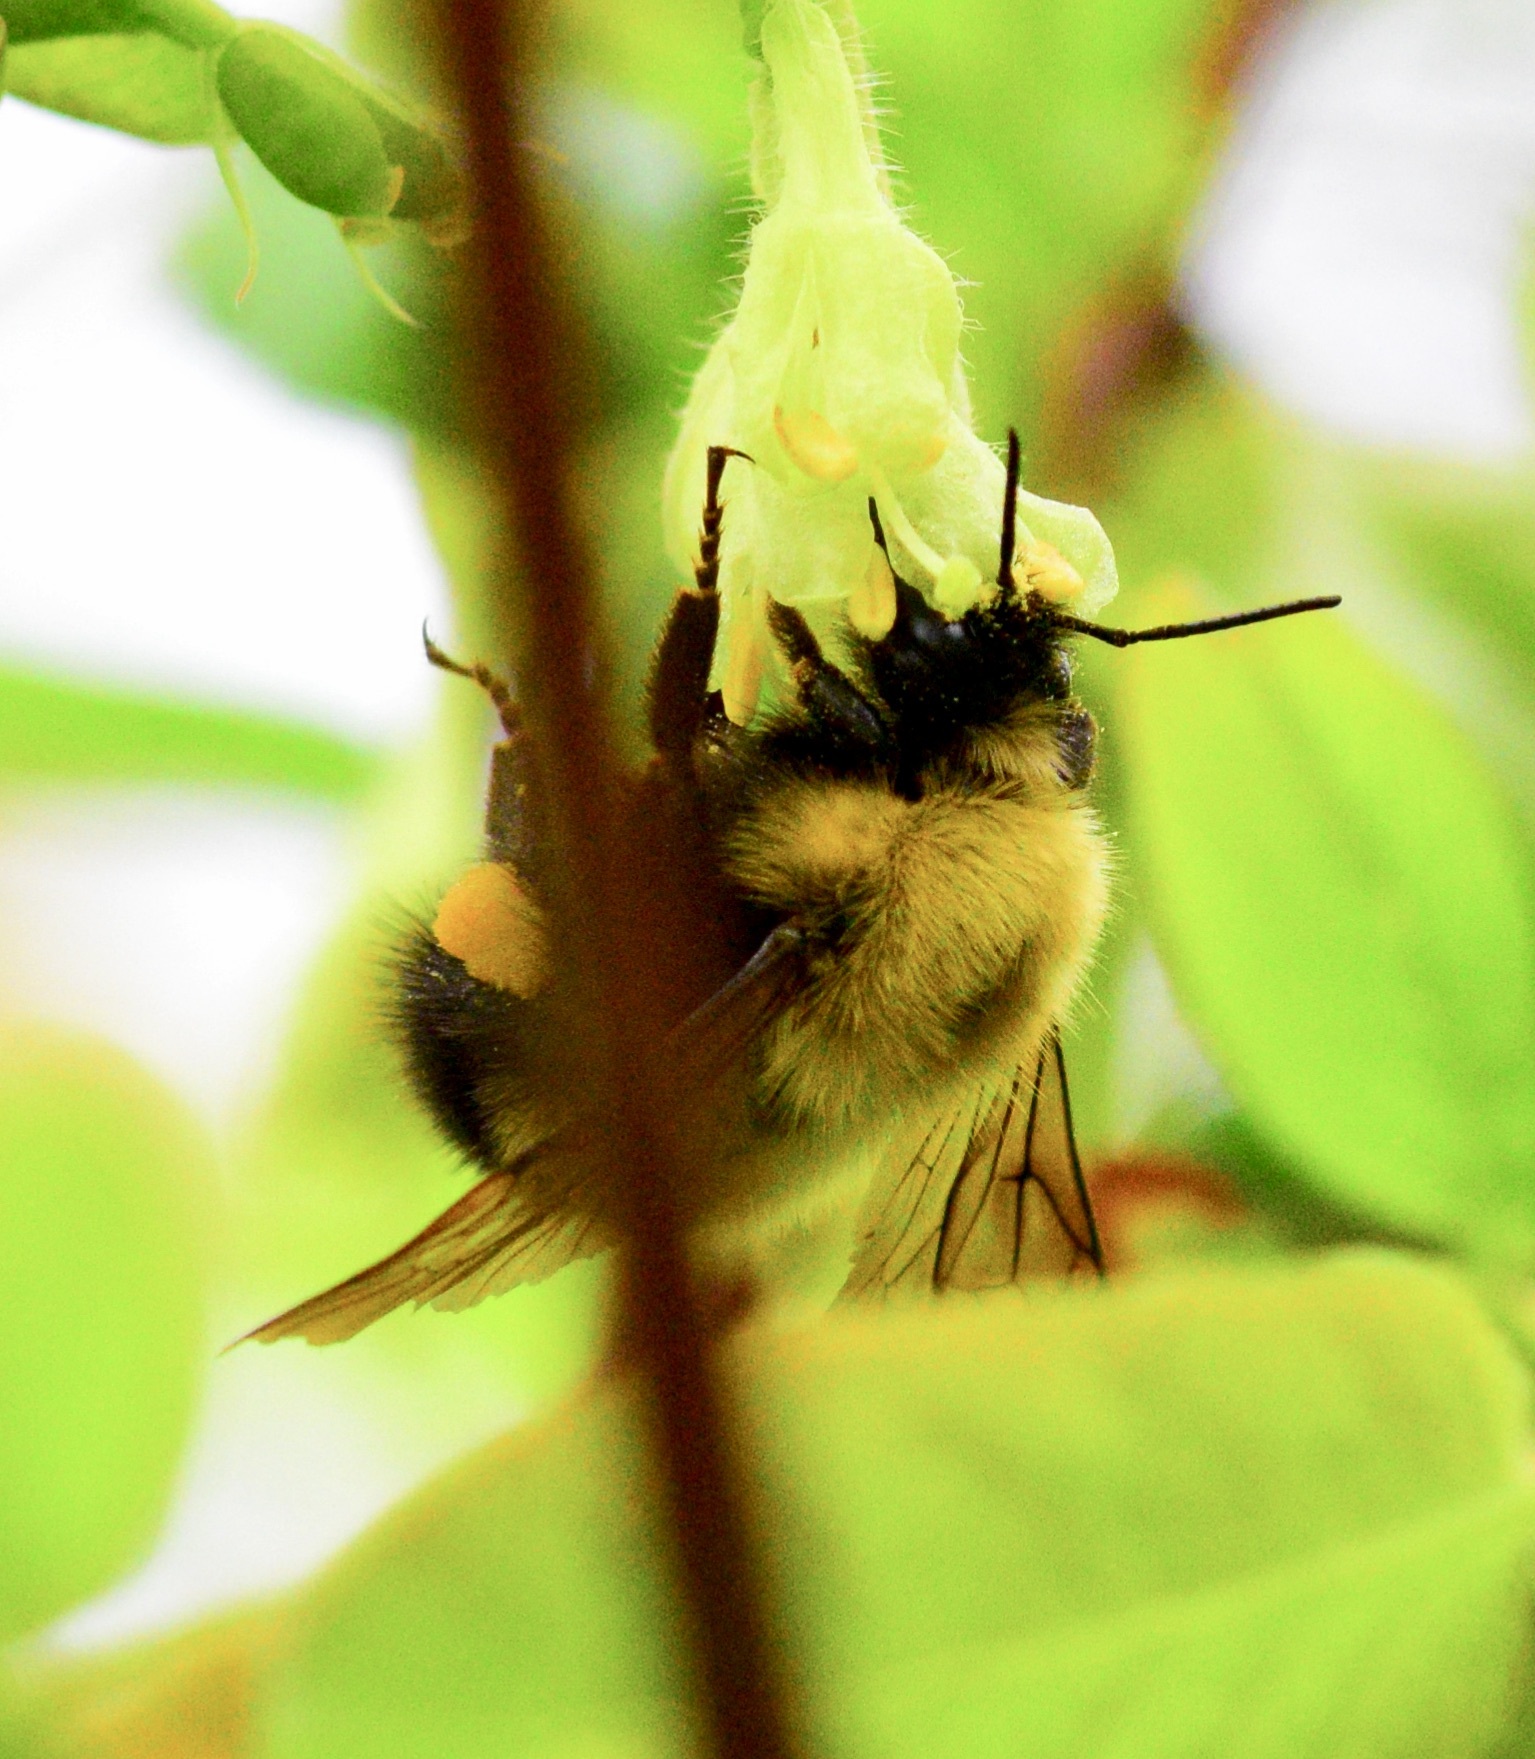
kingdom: Animalia
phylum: Arthropoda
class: Insecta
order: Hymenoptera
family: Apidae
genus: Bombus
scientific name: Bombus perplexus
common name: Confusing bumble bee
